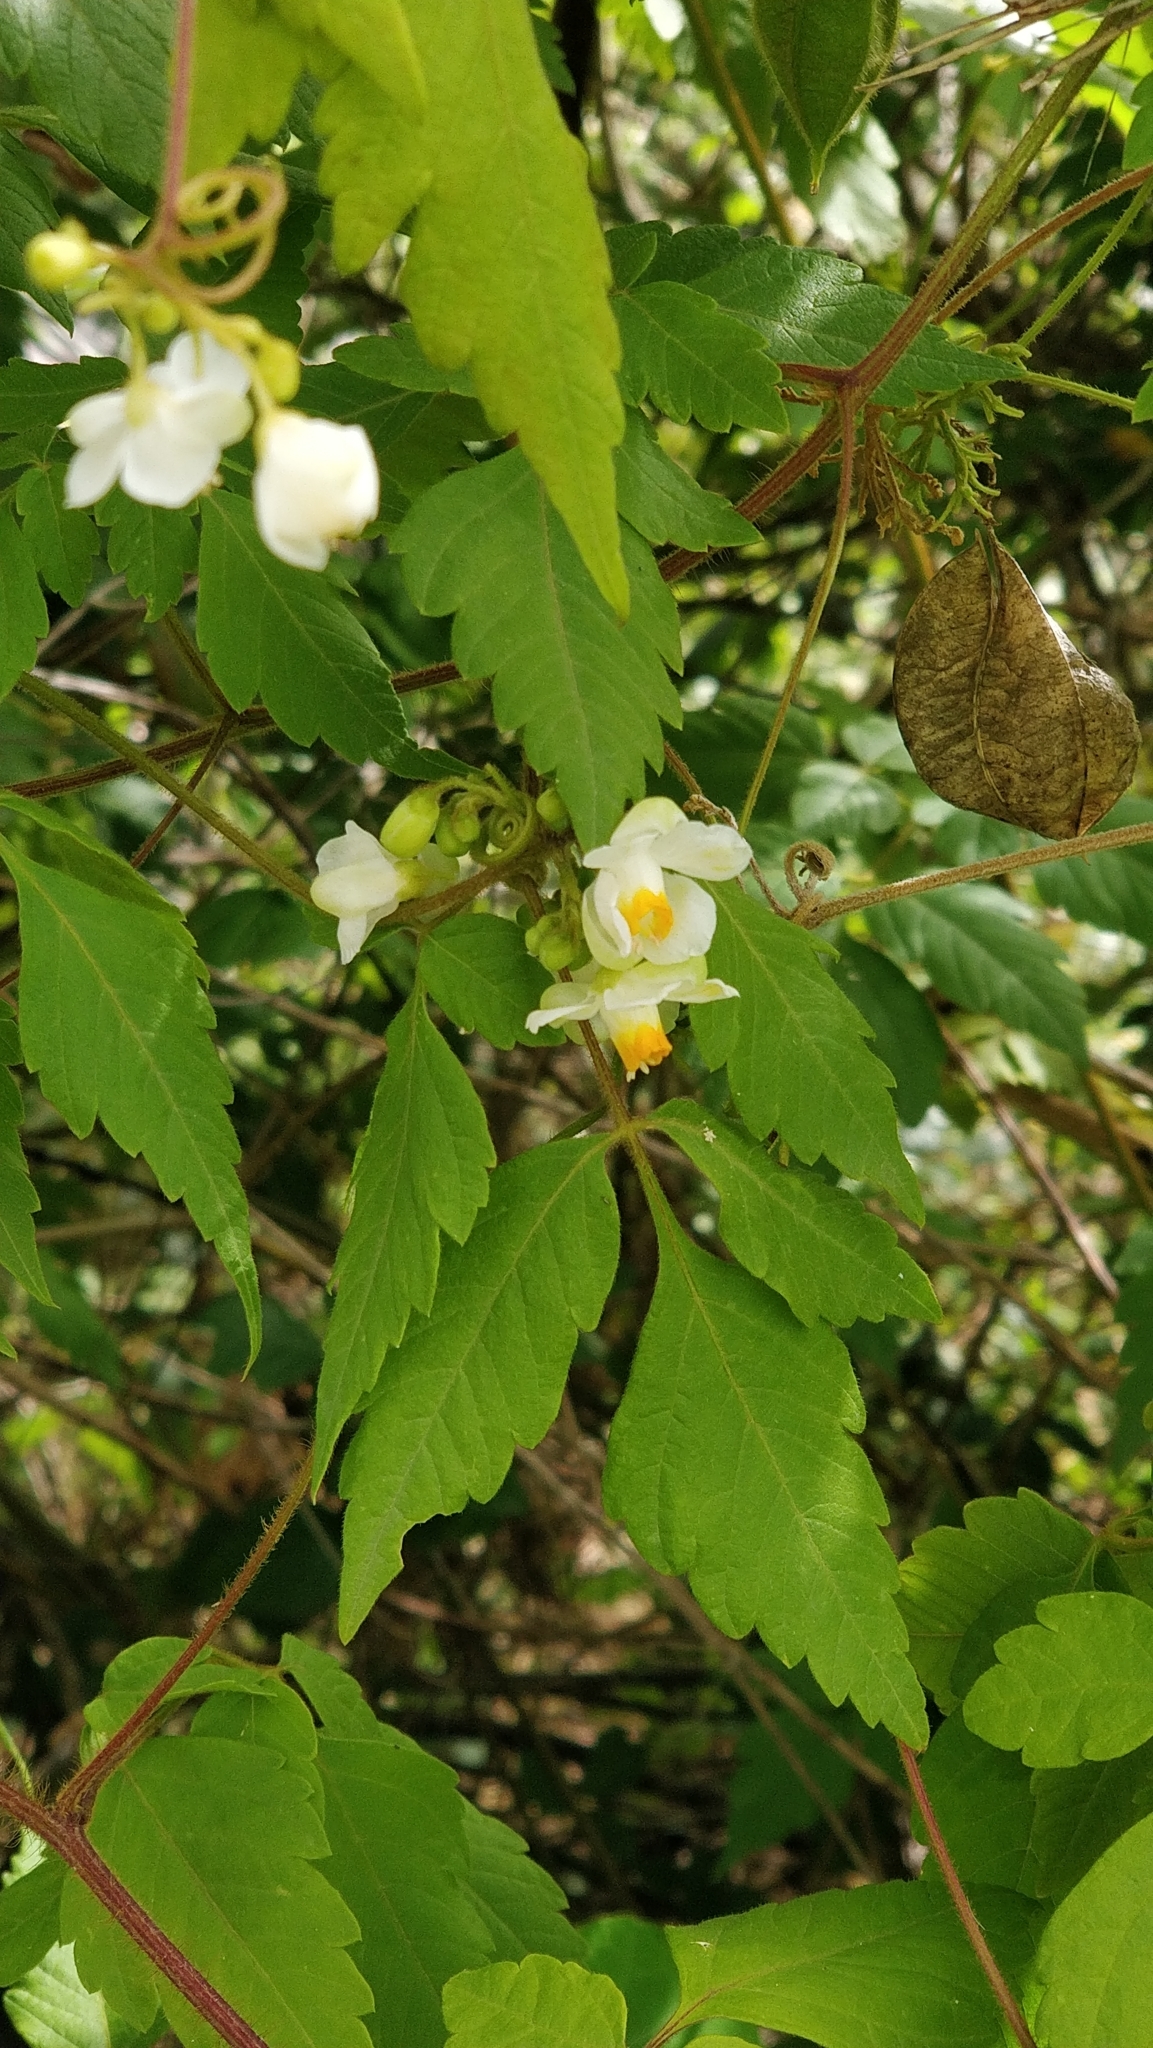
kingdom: Plantae
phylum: Tracheophyta
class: Magnoliopsida
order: Sapindales
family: Sapindaceae
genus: Cardiospermum
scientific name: Cardiospermum grandiflorum
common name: Balloon vine
